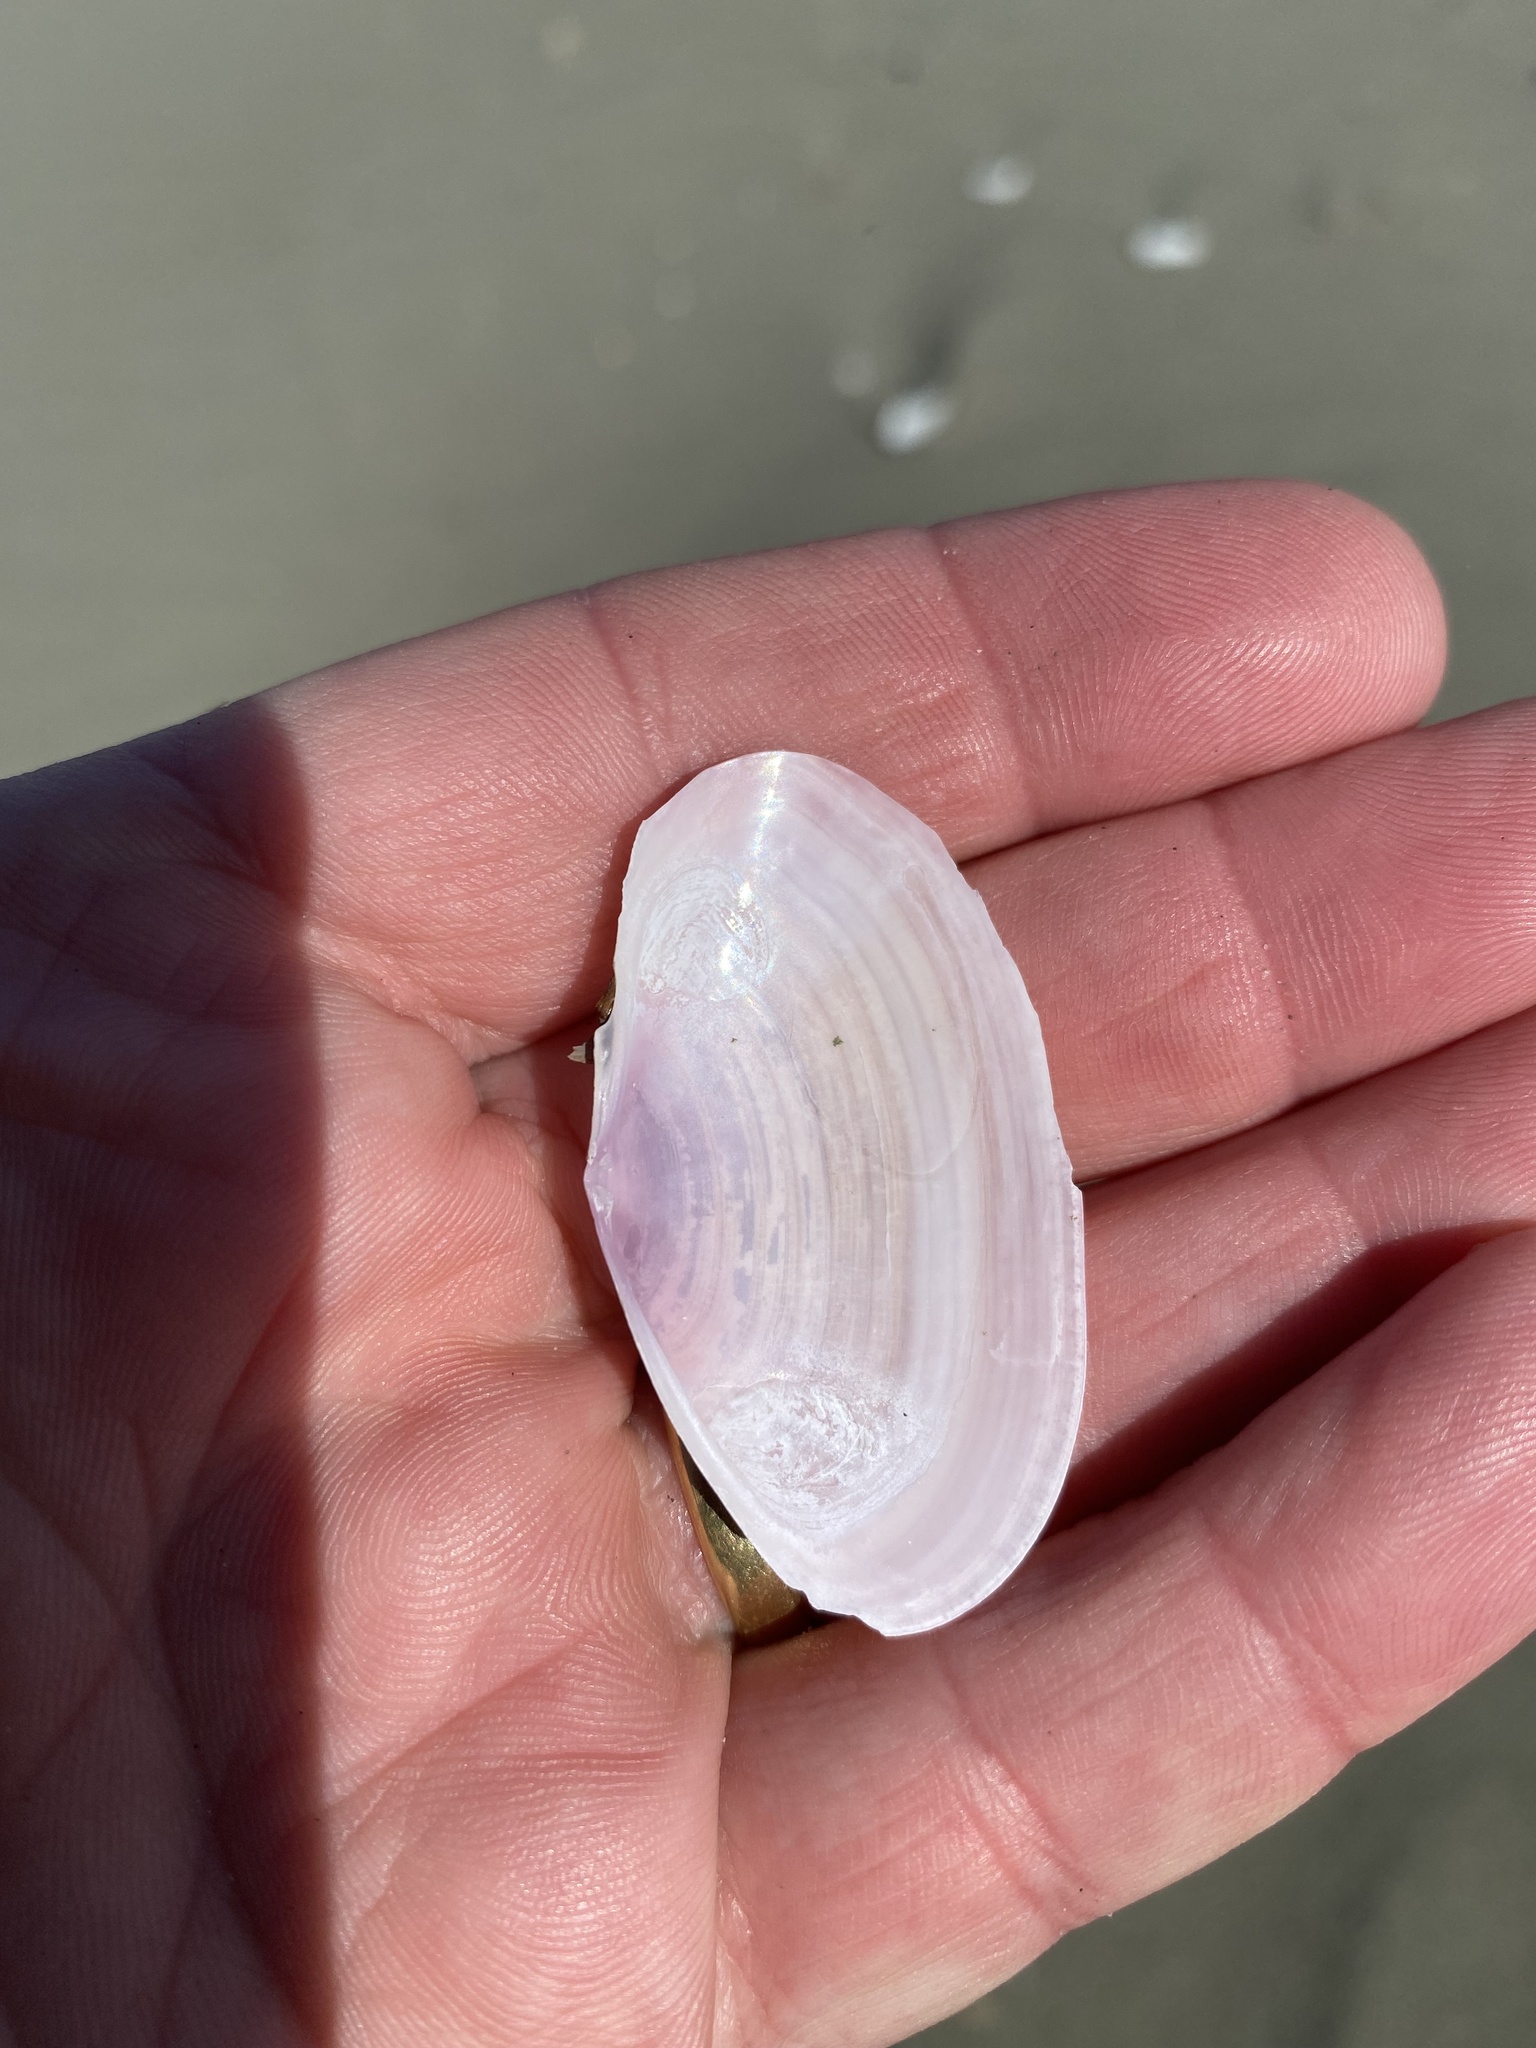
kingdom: Animalia
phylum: Mollusca
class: Bivalvia
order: Cardiida
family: Psammobiidae
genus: Gari
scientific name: Gari lineolata
